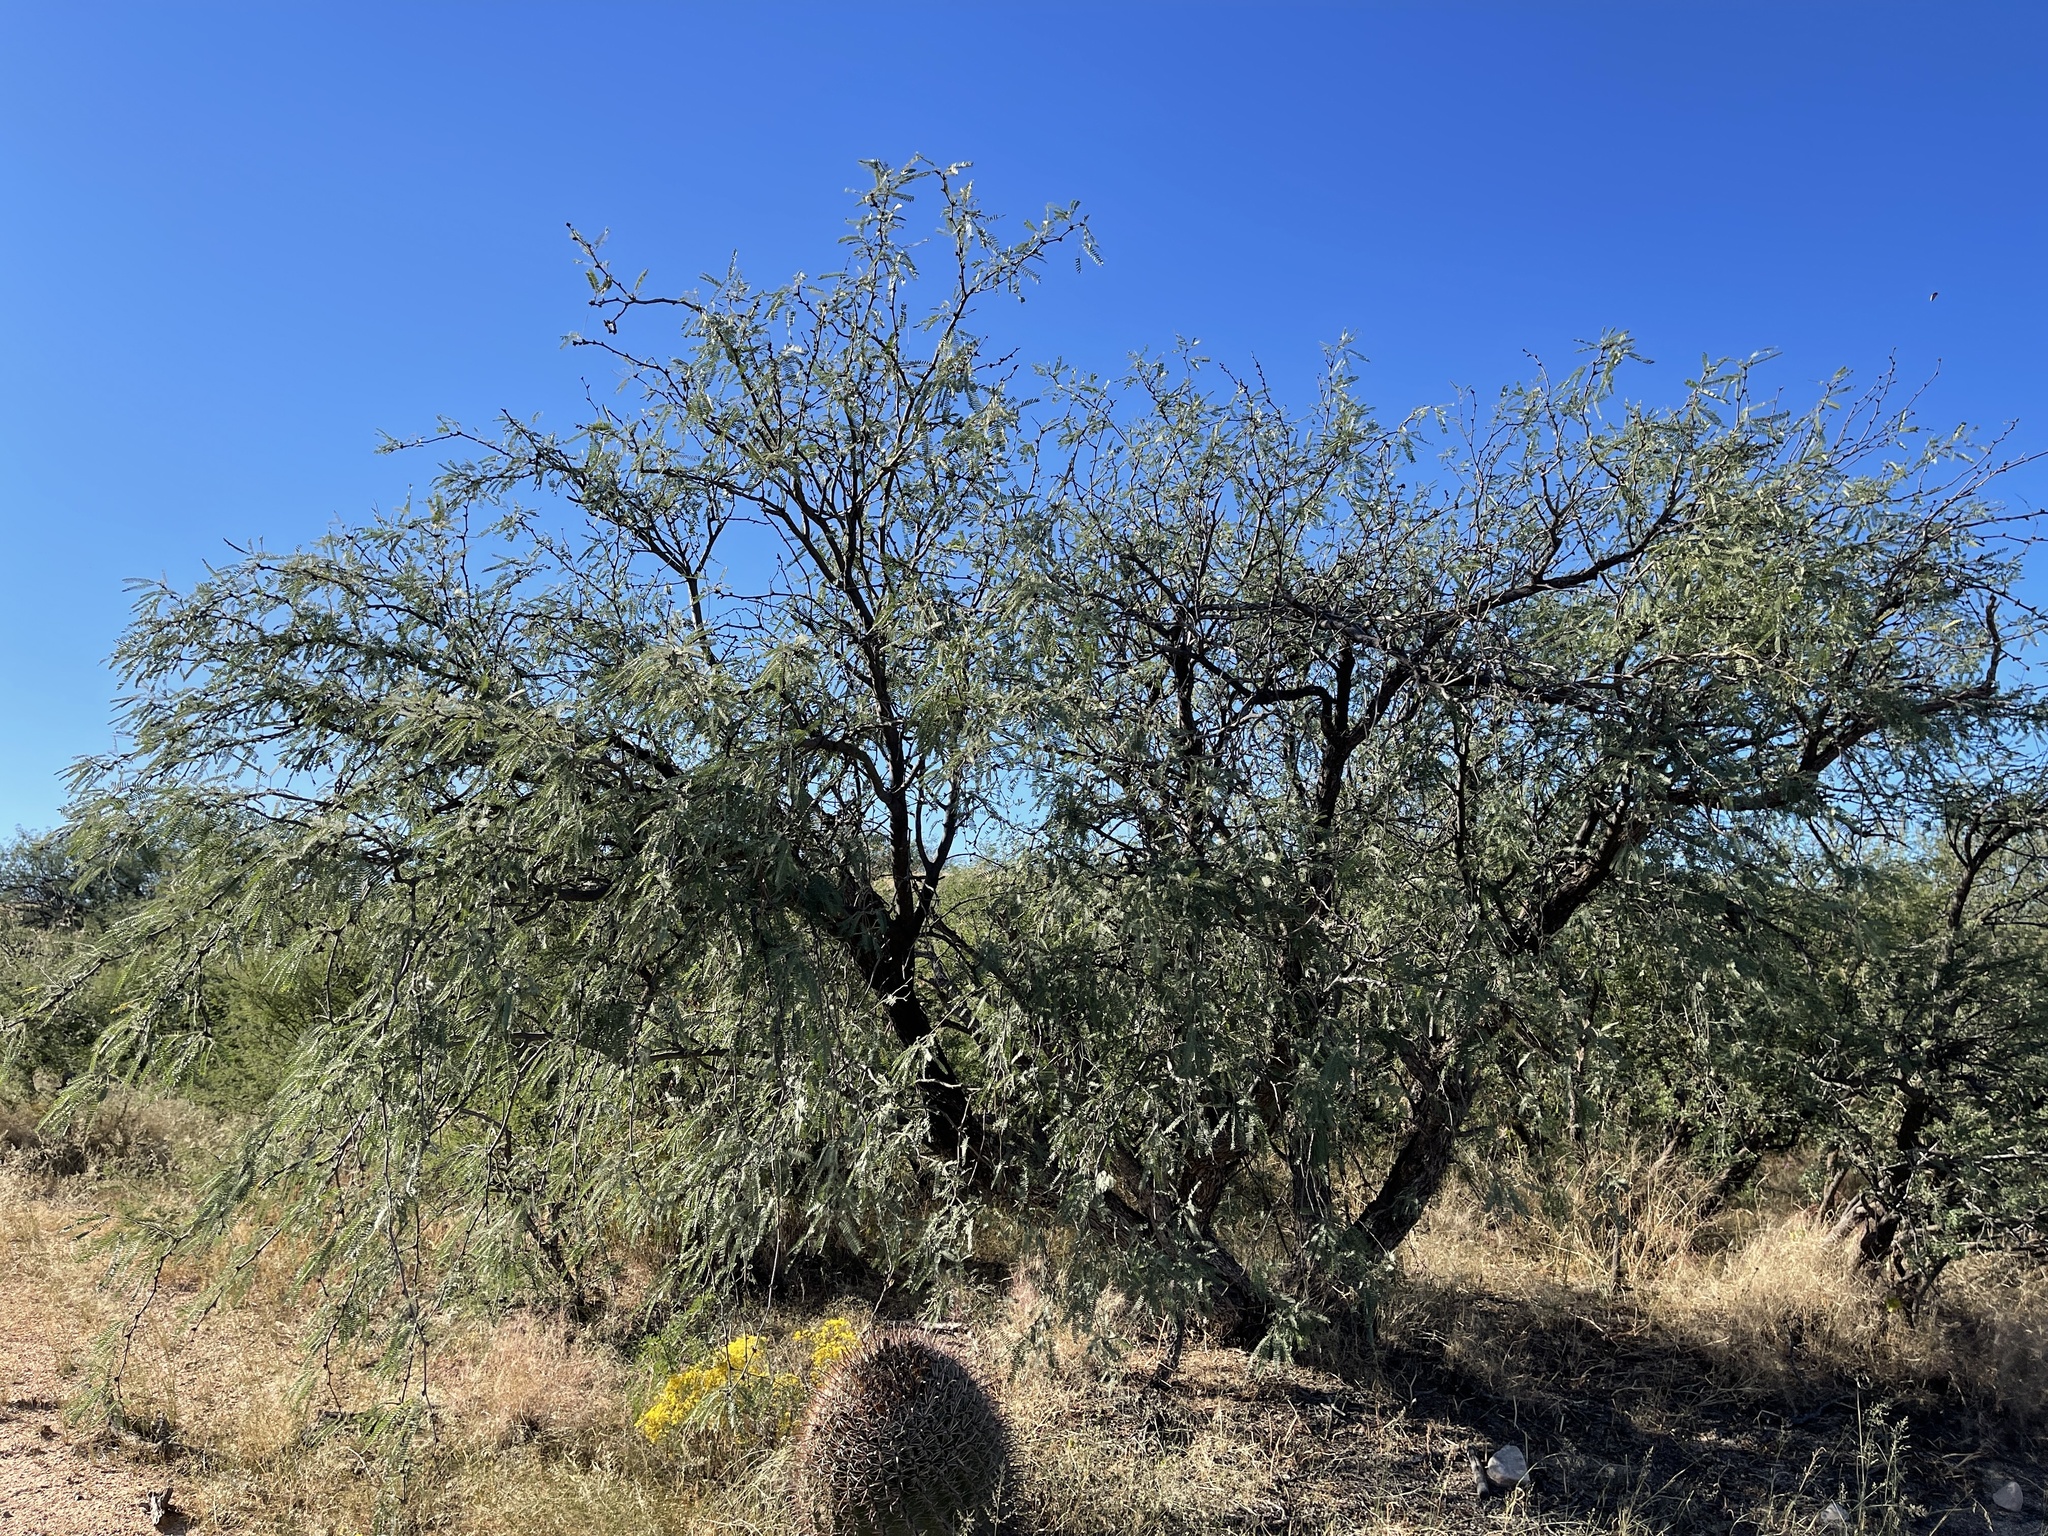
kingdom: Plantae
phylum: Tracheophyta
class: Magnoliopsida
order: Fabales
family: Fabaceae
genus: Prosopis
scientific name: Prosopis velutina
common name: Velvet mesquite
